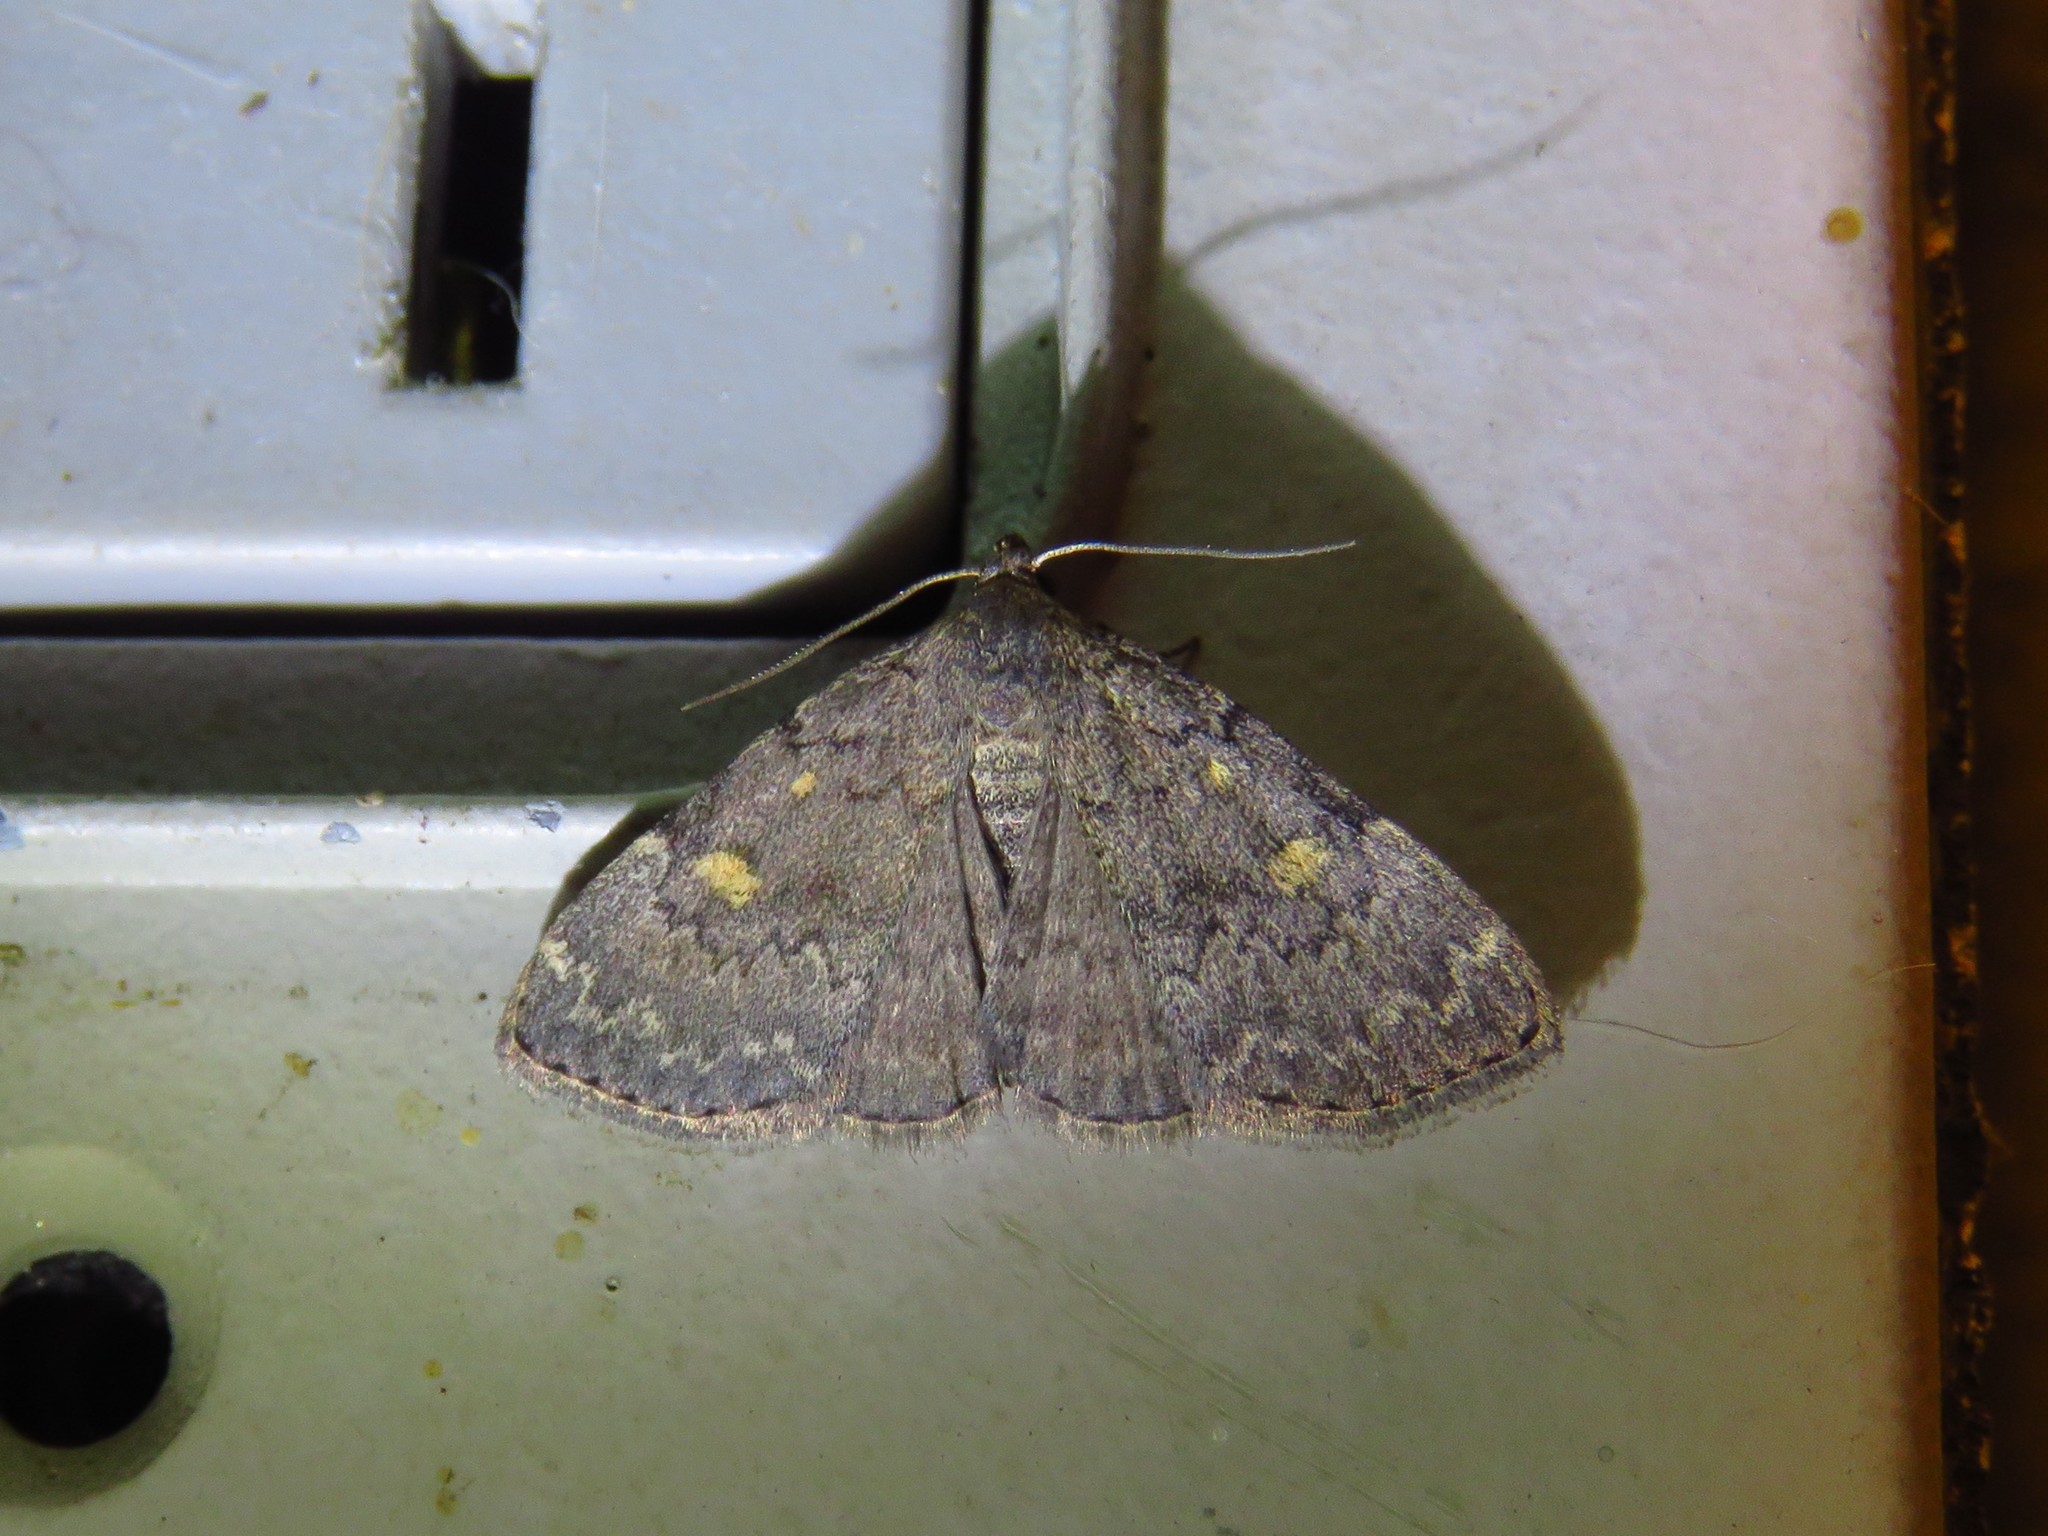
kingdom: Animalia
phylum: Arthropoda
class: Insecta
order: Lepidoptera
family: Erebidae
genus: Idia
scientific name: Idia aemula
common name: Common idia moth
